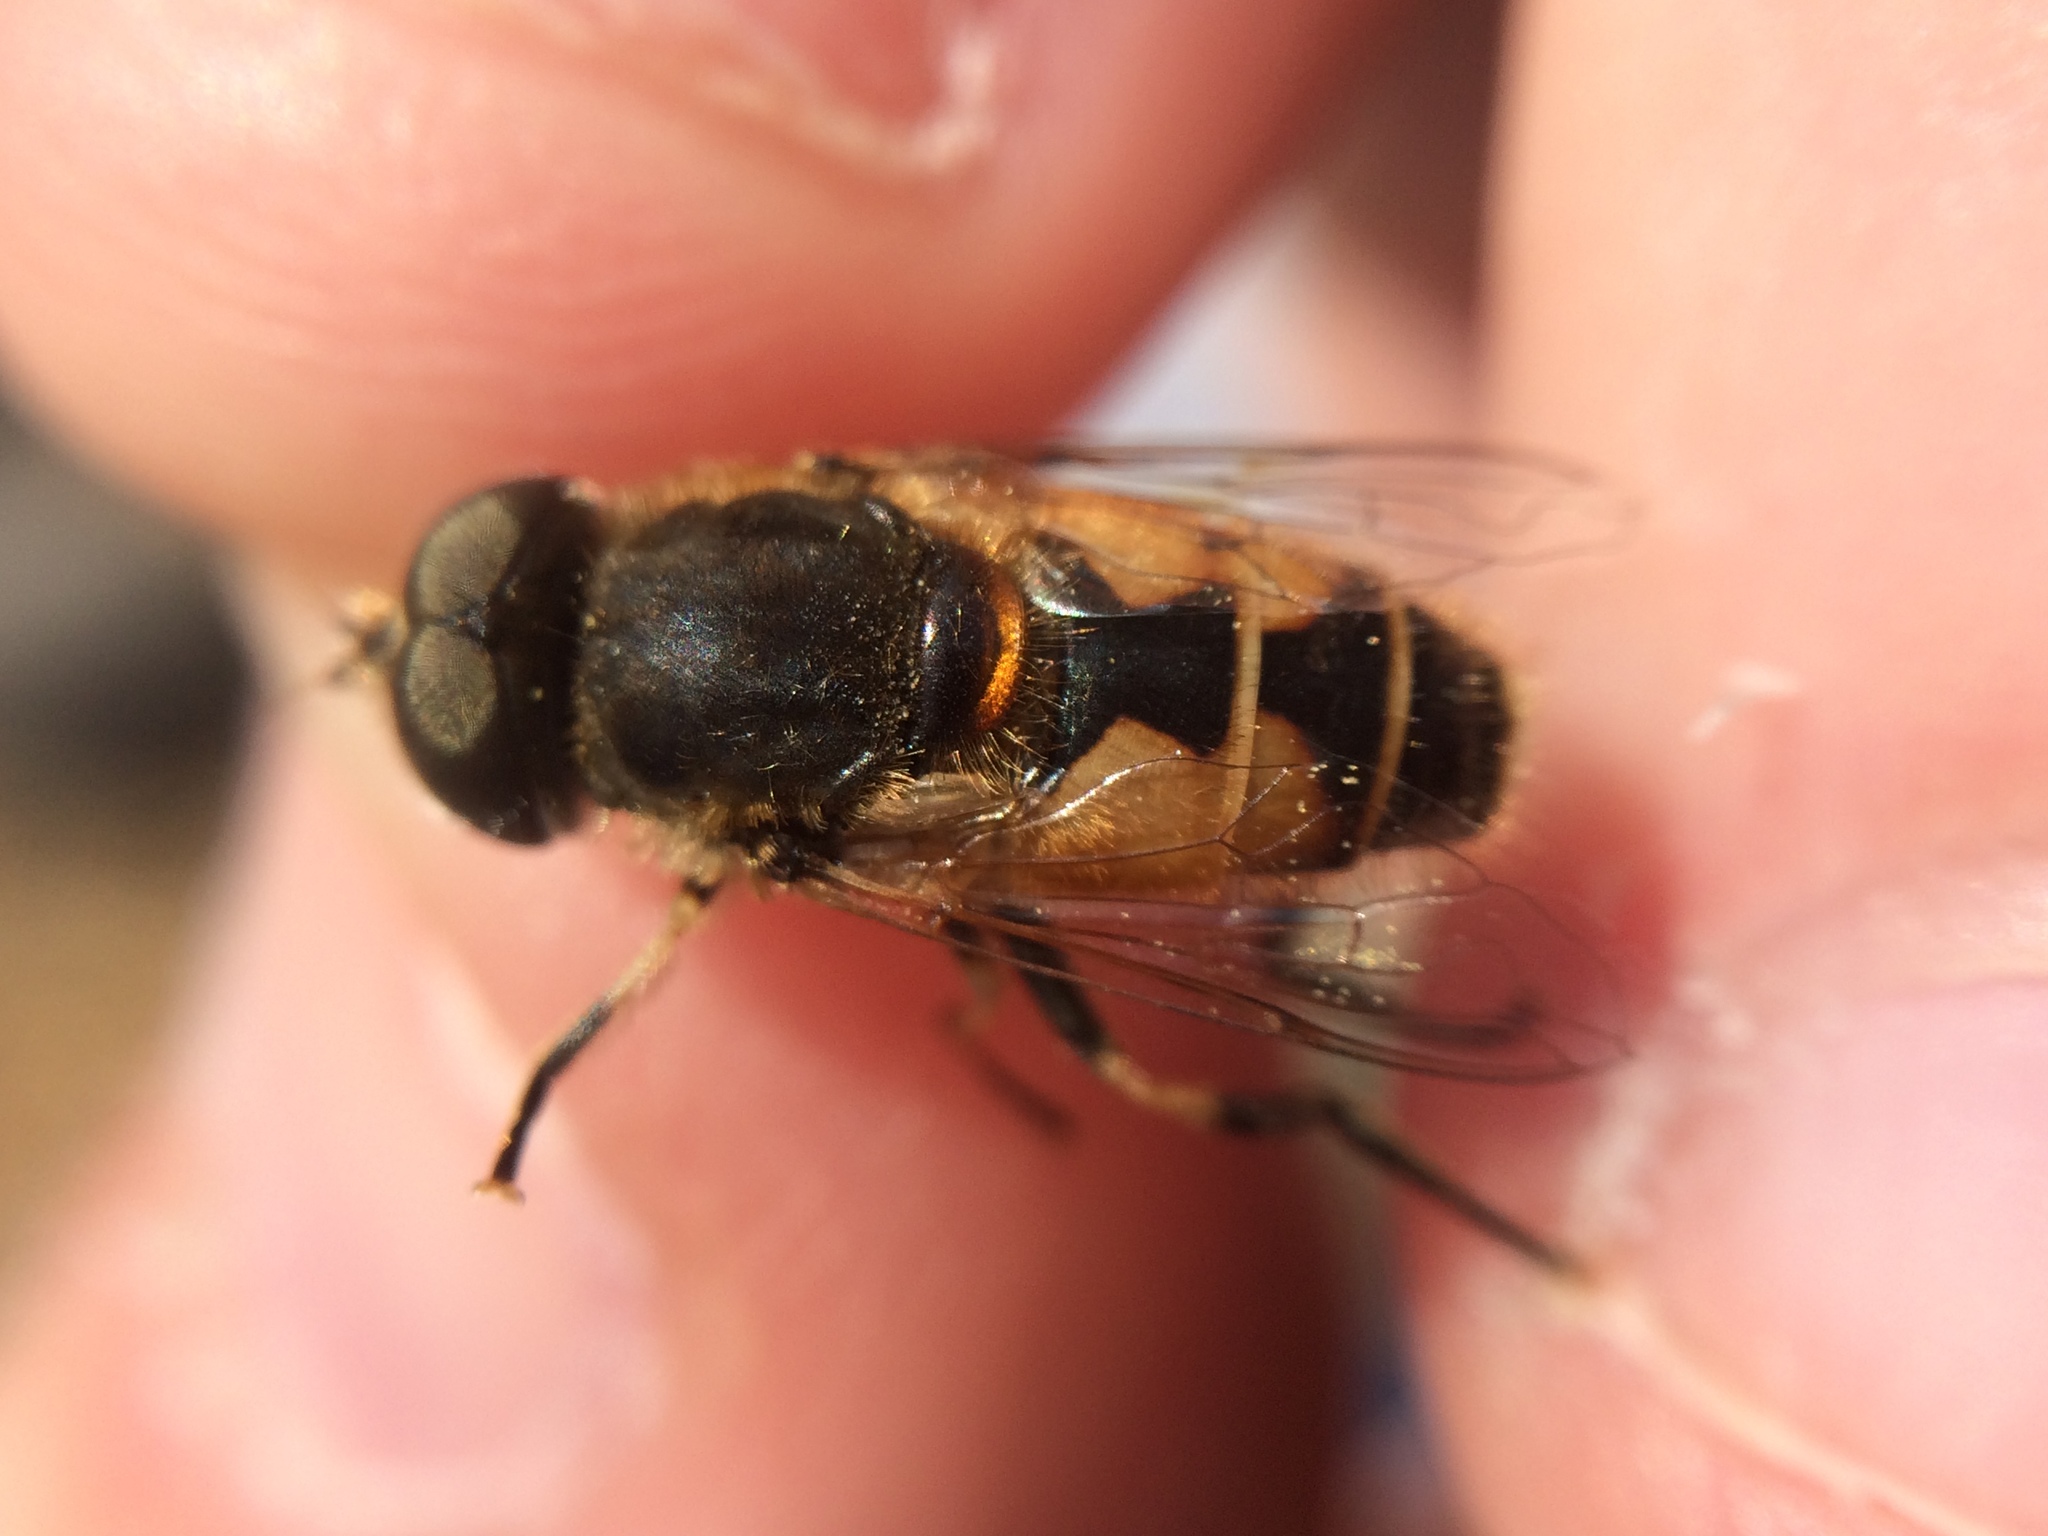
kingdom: Animalia
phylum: Arthropoda
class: Insecta
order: Diptera
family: Syrphidae
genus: Eristalis
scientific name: Eristalis arbustorum
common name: Hover fly
